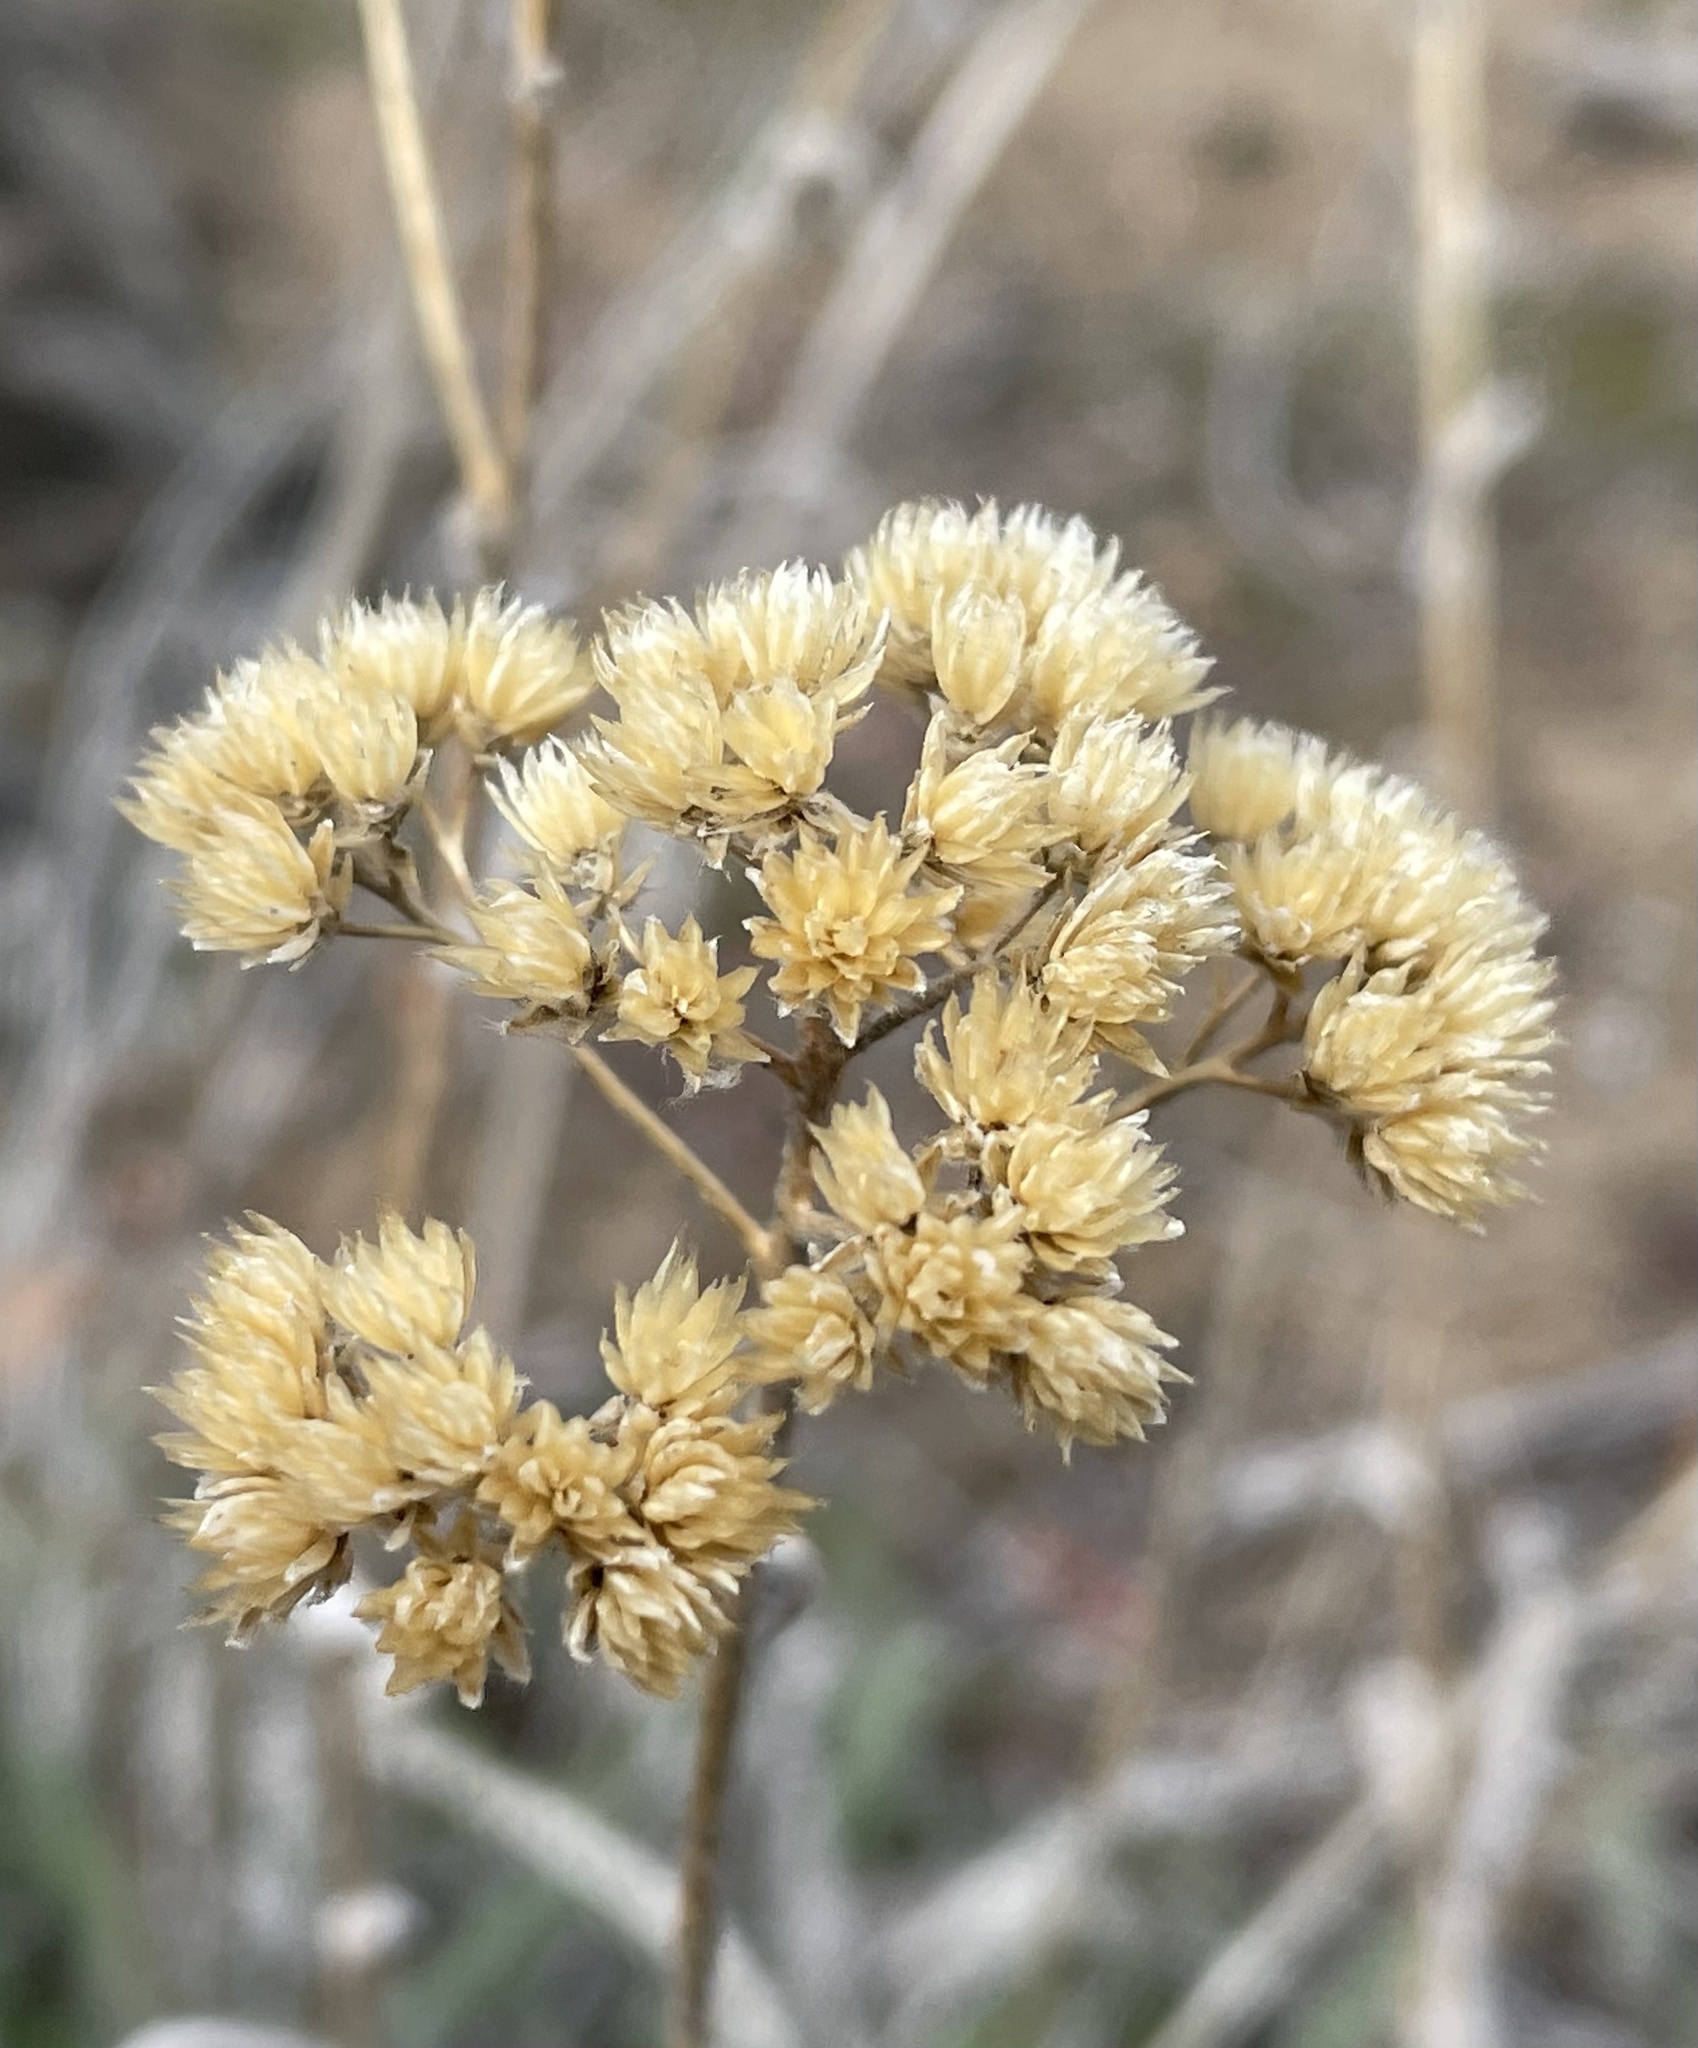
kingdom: Plantae
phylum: Tracheophyta
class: Magnoliopsida
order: Asterales
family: Asteraceae
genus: Achillea
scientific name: Achillea millefolium
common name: Yarrow
